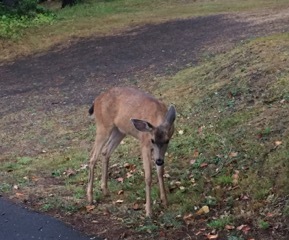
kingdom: Animalia
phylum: Chordata
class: Mammalia
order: Artiodactyla
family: Cervidae
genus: Odocoileus
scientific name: Odocoileus hemionus
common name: Mule deer
